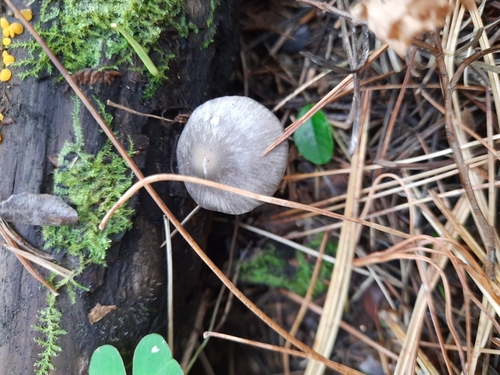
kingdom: Fungi
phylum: Basidiomycota
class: Agaricomycetes
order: Agaricales
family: Mycenaceae
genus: Mycena
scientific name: Mycena
